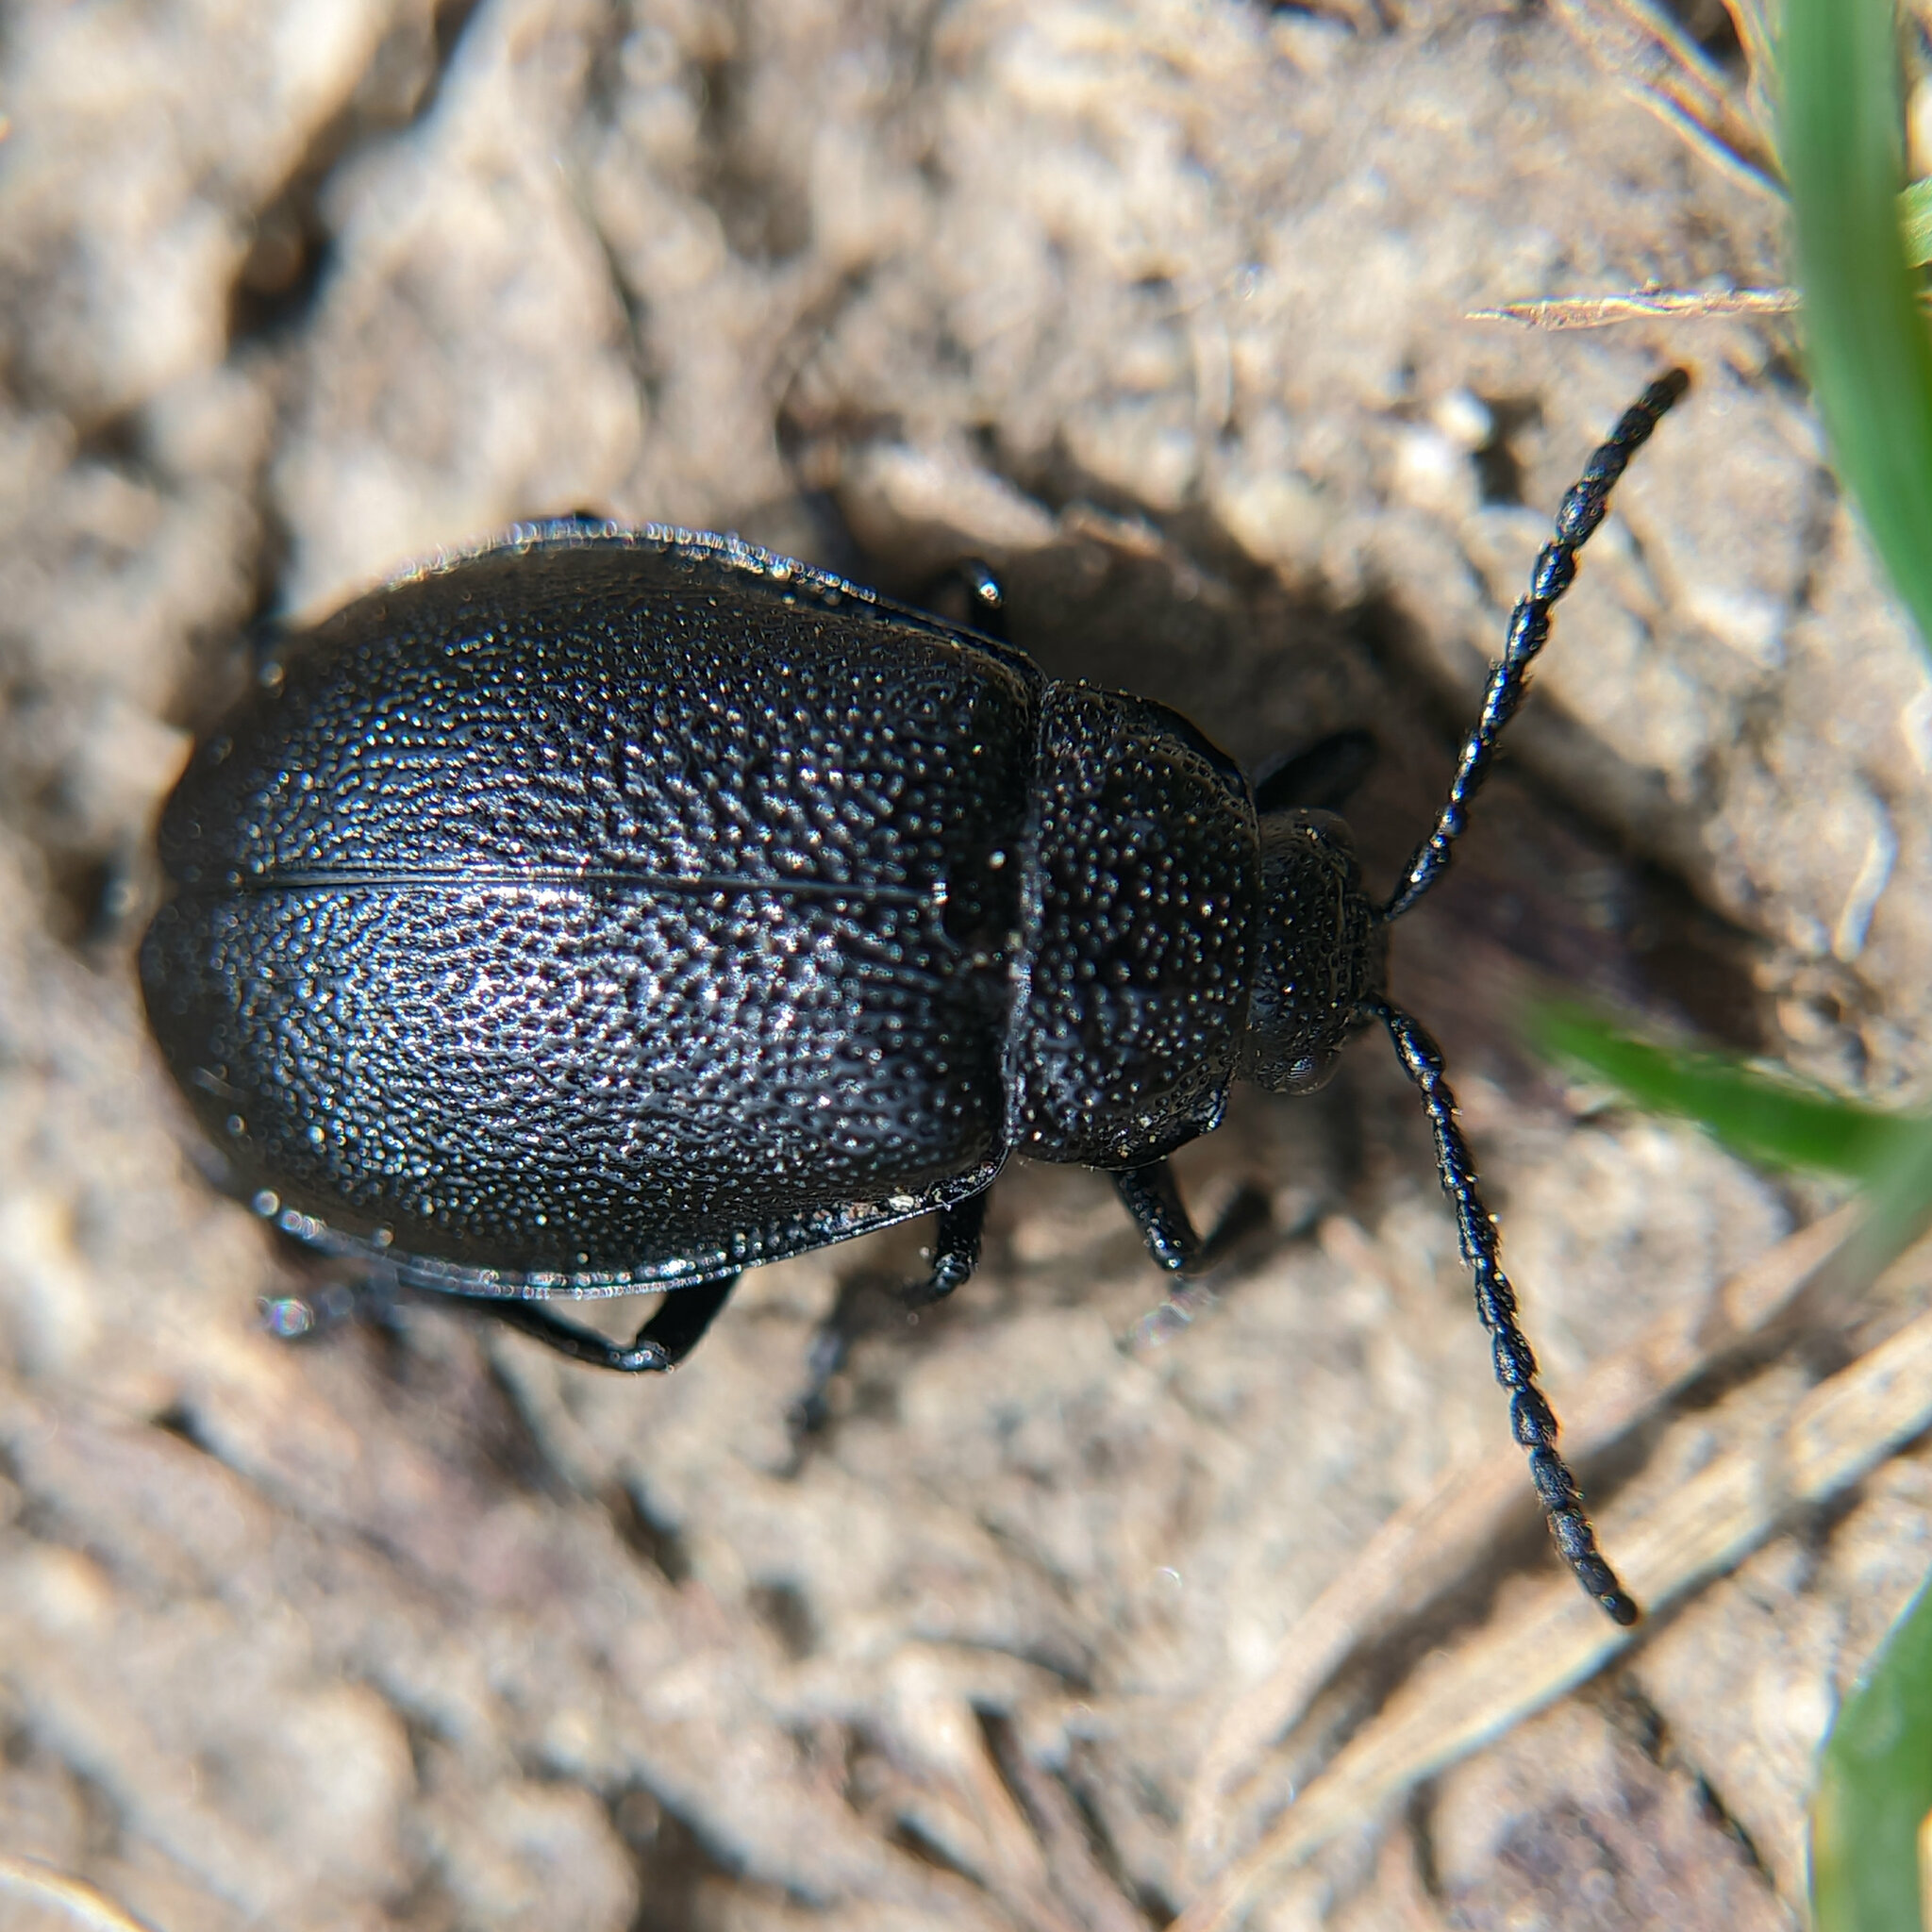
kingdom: Animalia
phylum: Arthropoda
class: Insecta
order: Coleoptera
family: Chrysomelidae
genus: Galeruca
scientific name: Galeruca tanaceti
